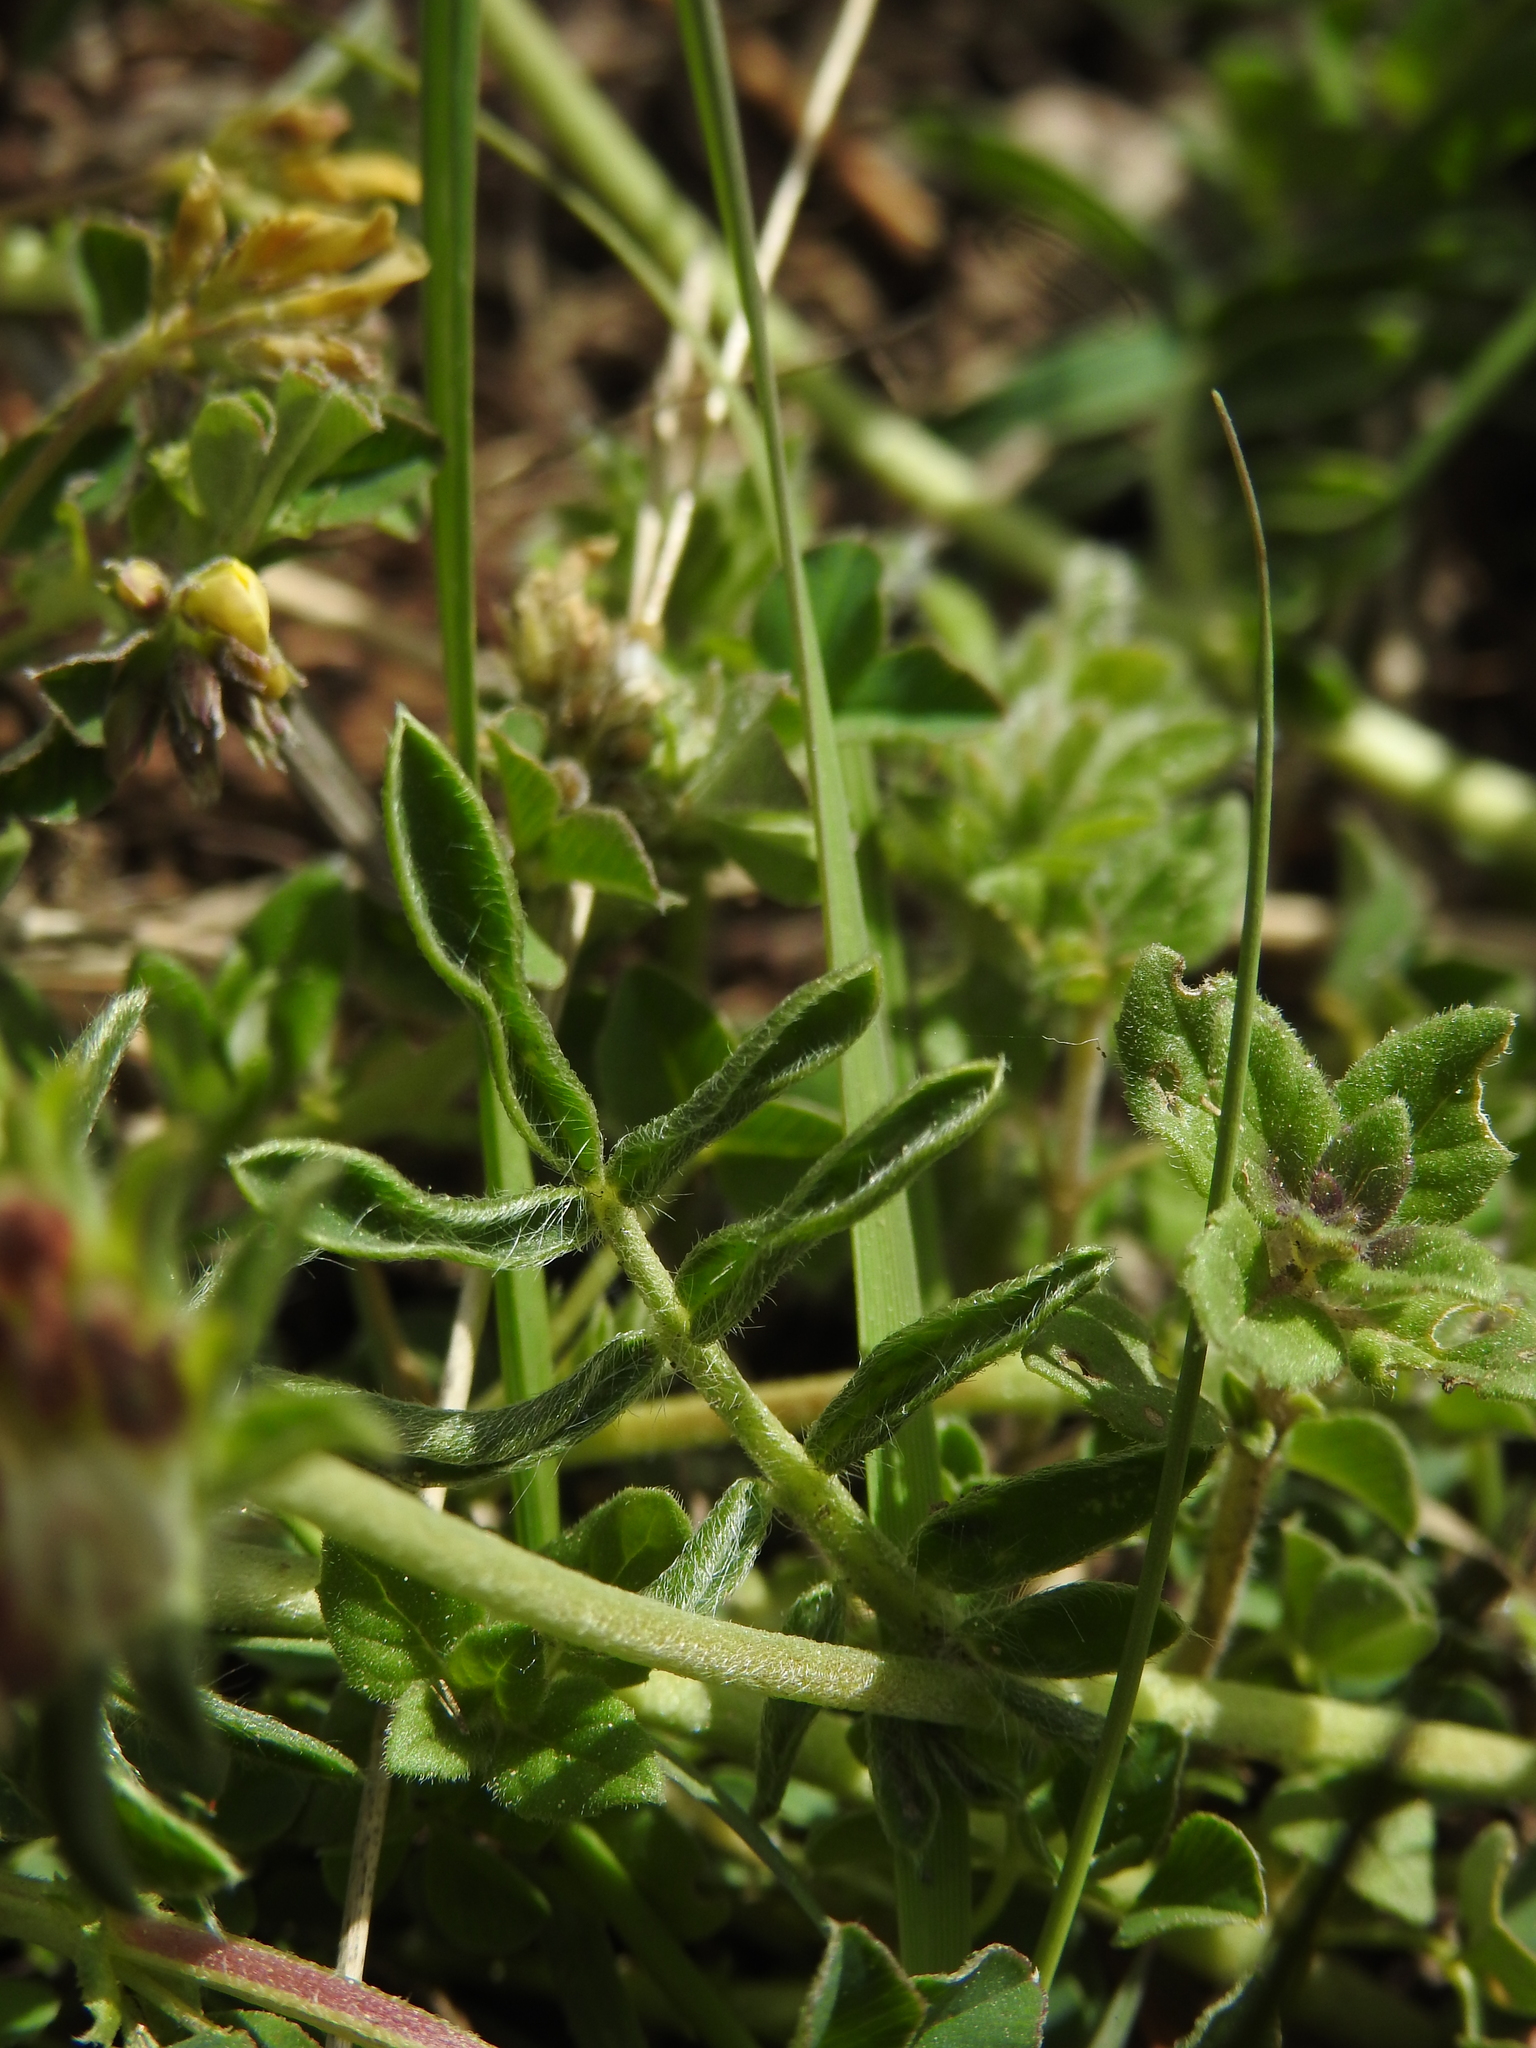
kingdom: Plantae
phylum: Tracheophyta
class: Magnoliopsida
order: Fabales
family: Fabaceae
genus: Anthyllis
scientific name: Anthyllis vulneraria
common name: Kidney vetch
